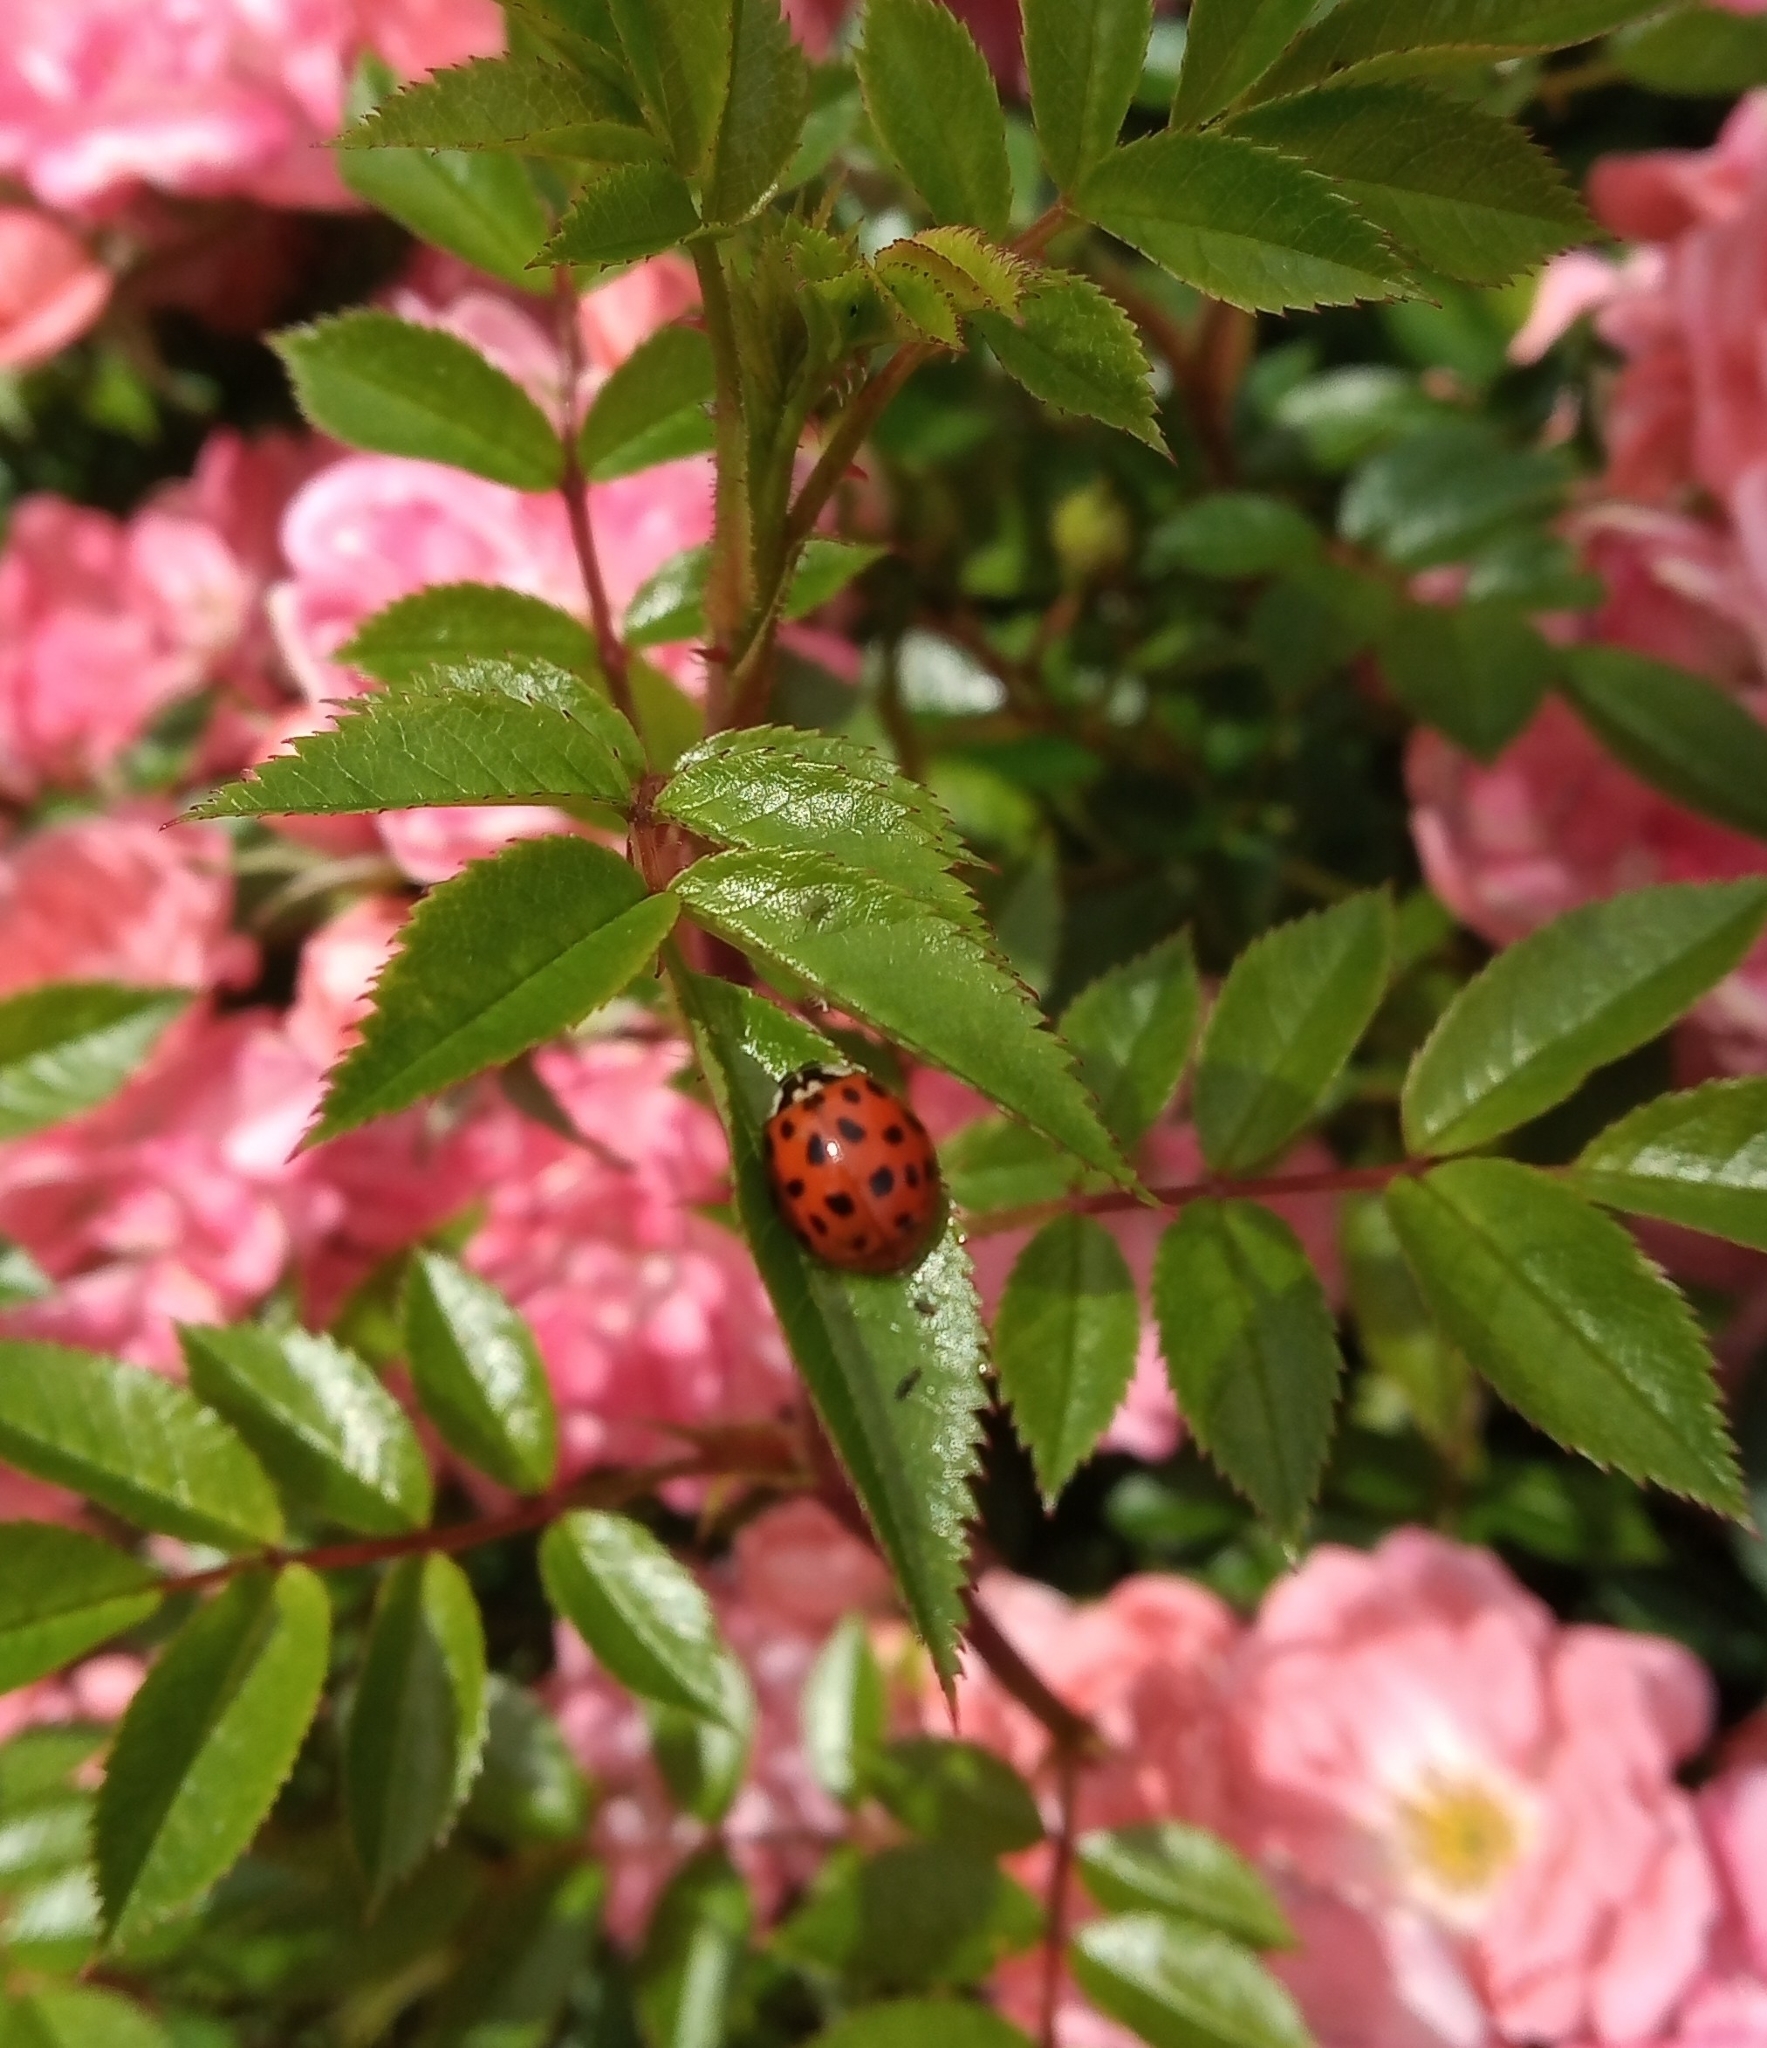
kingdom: Animalia
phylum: Arthropoda
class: Insecta
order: Coleoptera
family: Coccinellidae
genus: Harmonia
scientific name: Harmonia axyridis
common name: Harlequin ladybird
